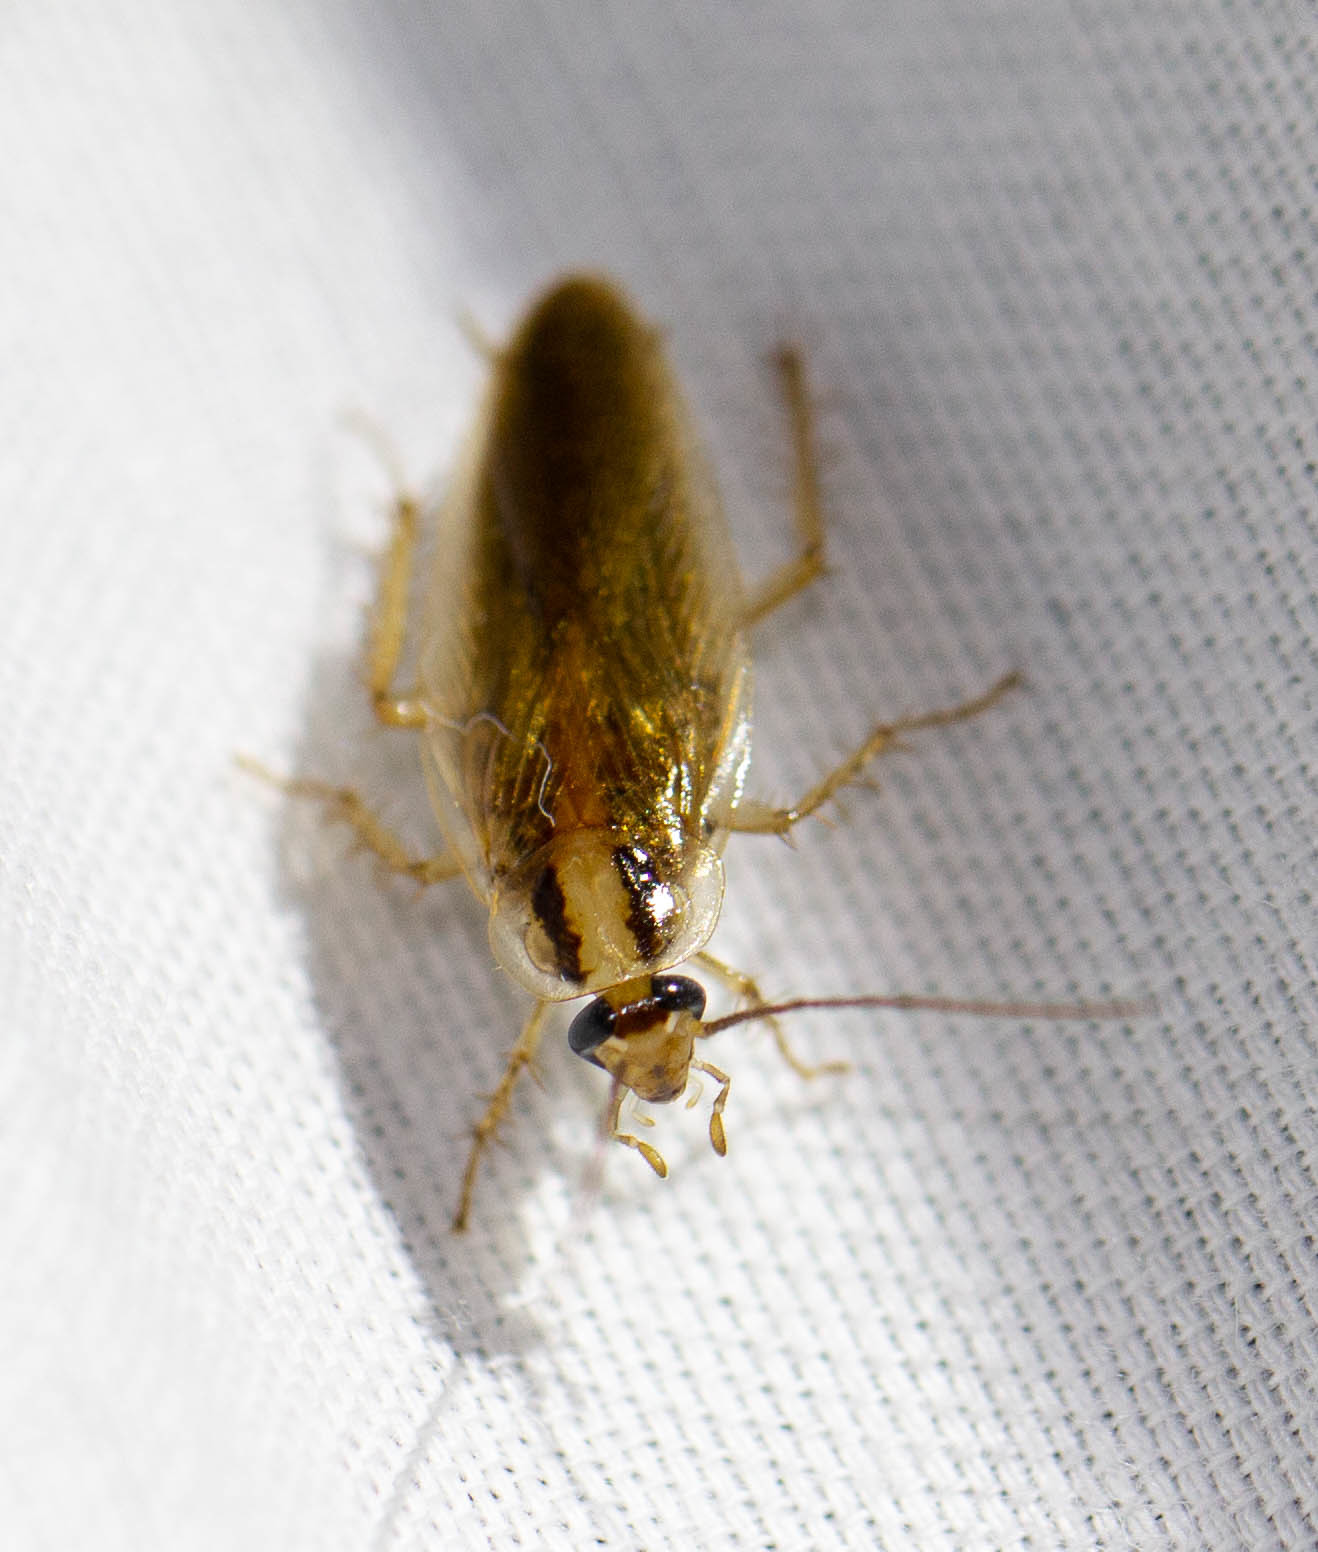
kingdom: Animalia
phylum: Arthropoda
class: Insecta
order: Blattodea
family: Ectobiidae
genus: Blattella
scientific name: Blattella asahinai
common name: Asian cockroach
